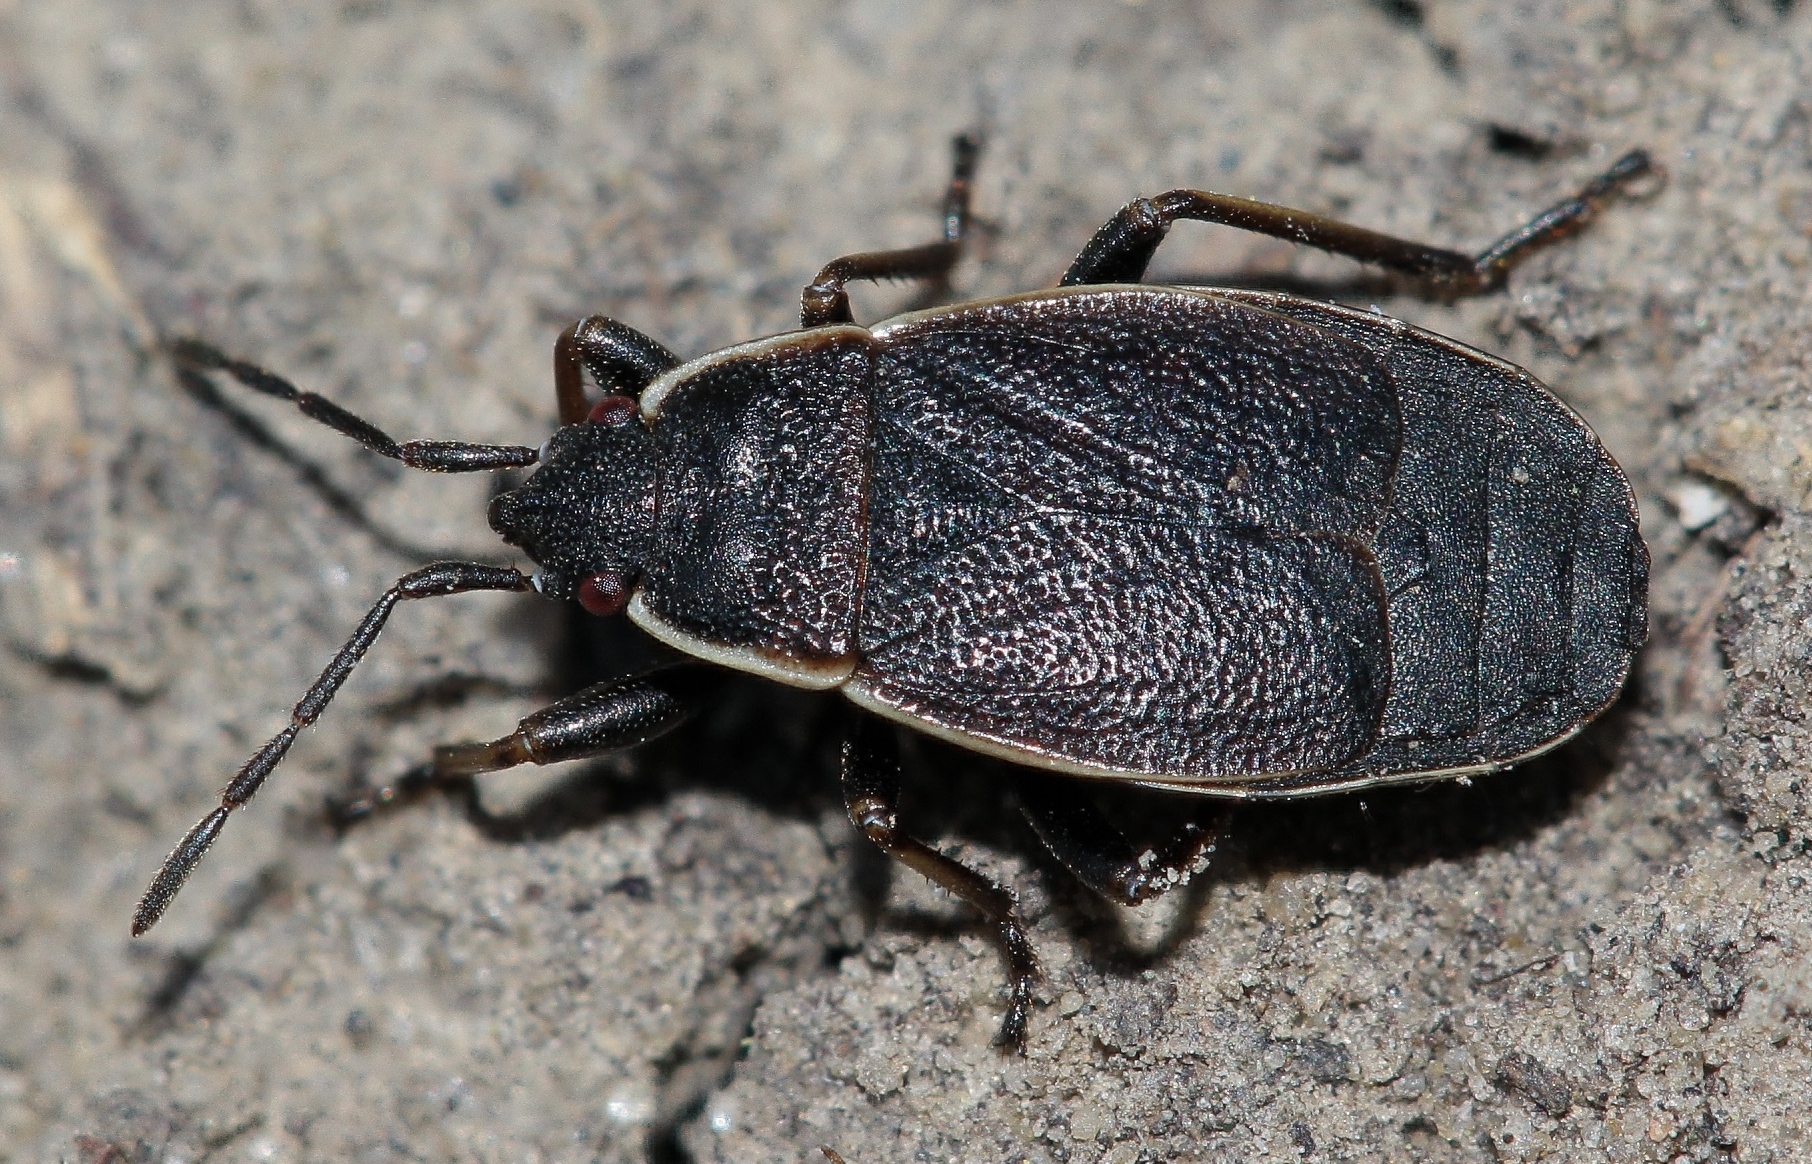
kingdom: Animalia
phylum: Arthropoda
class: Insecta
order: Hemiptera
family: Pyrrhocoridae
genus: Pyrrhocoris
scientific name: Pyrrhocoris marginatus
